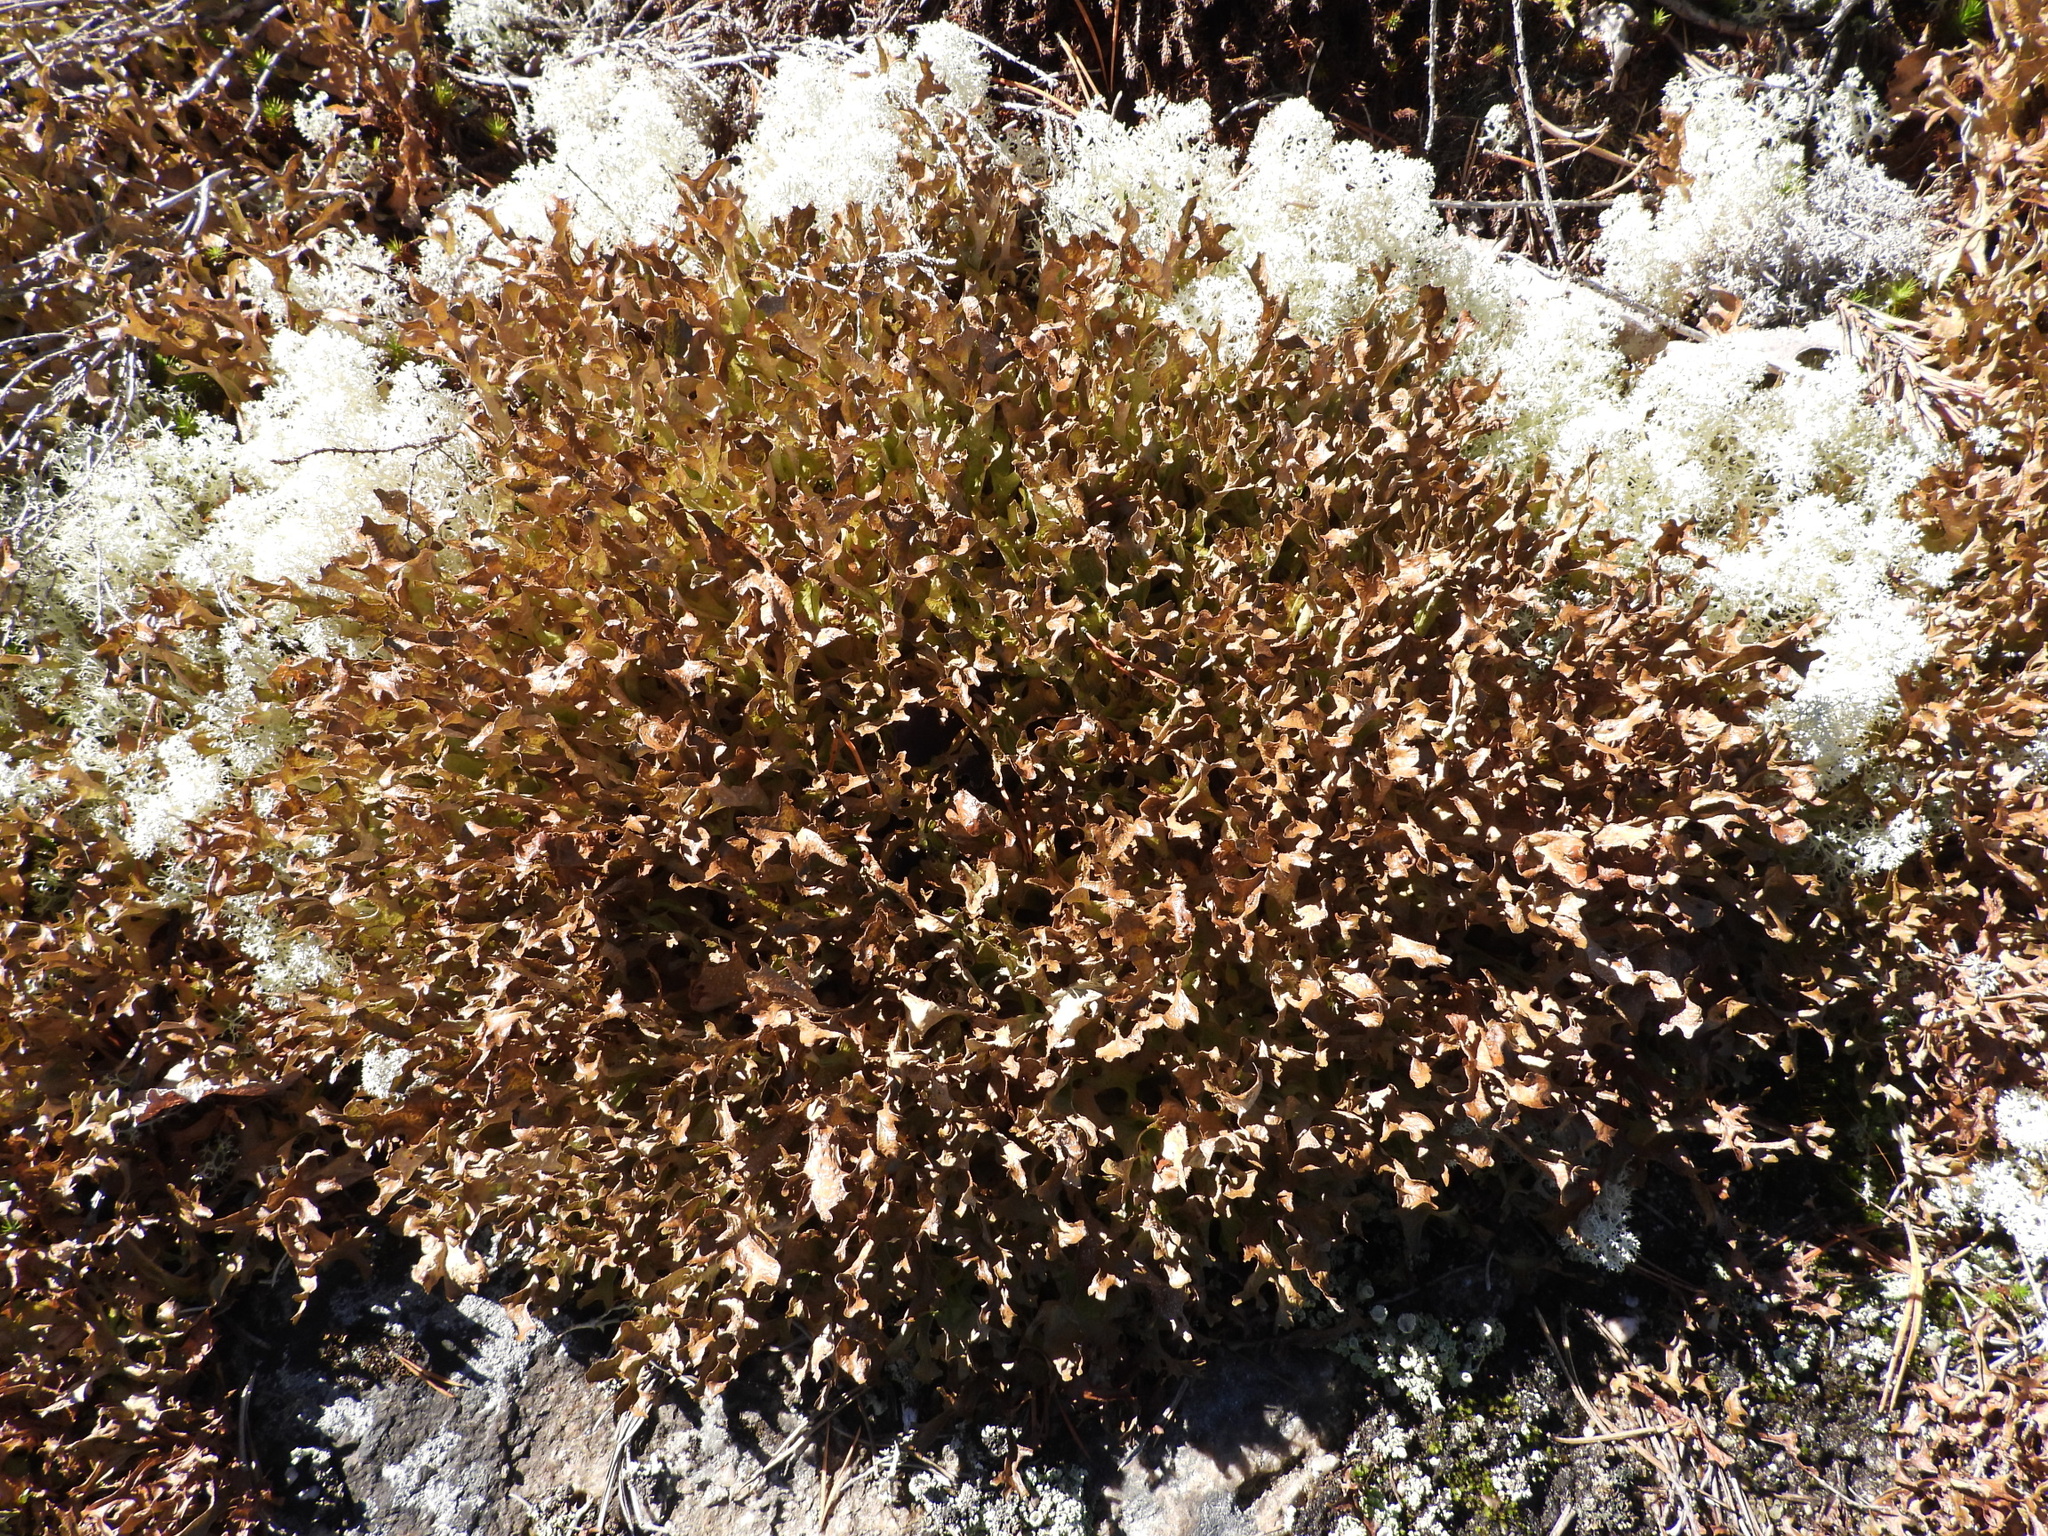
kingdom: Fungi
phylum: Ascomycota
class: Lecanoromycetes
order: Lecanorales
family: Parmeliaceae
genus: Cetraria
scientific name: Cetraria islandica
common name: Iceland lichen
